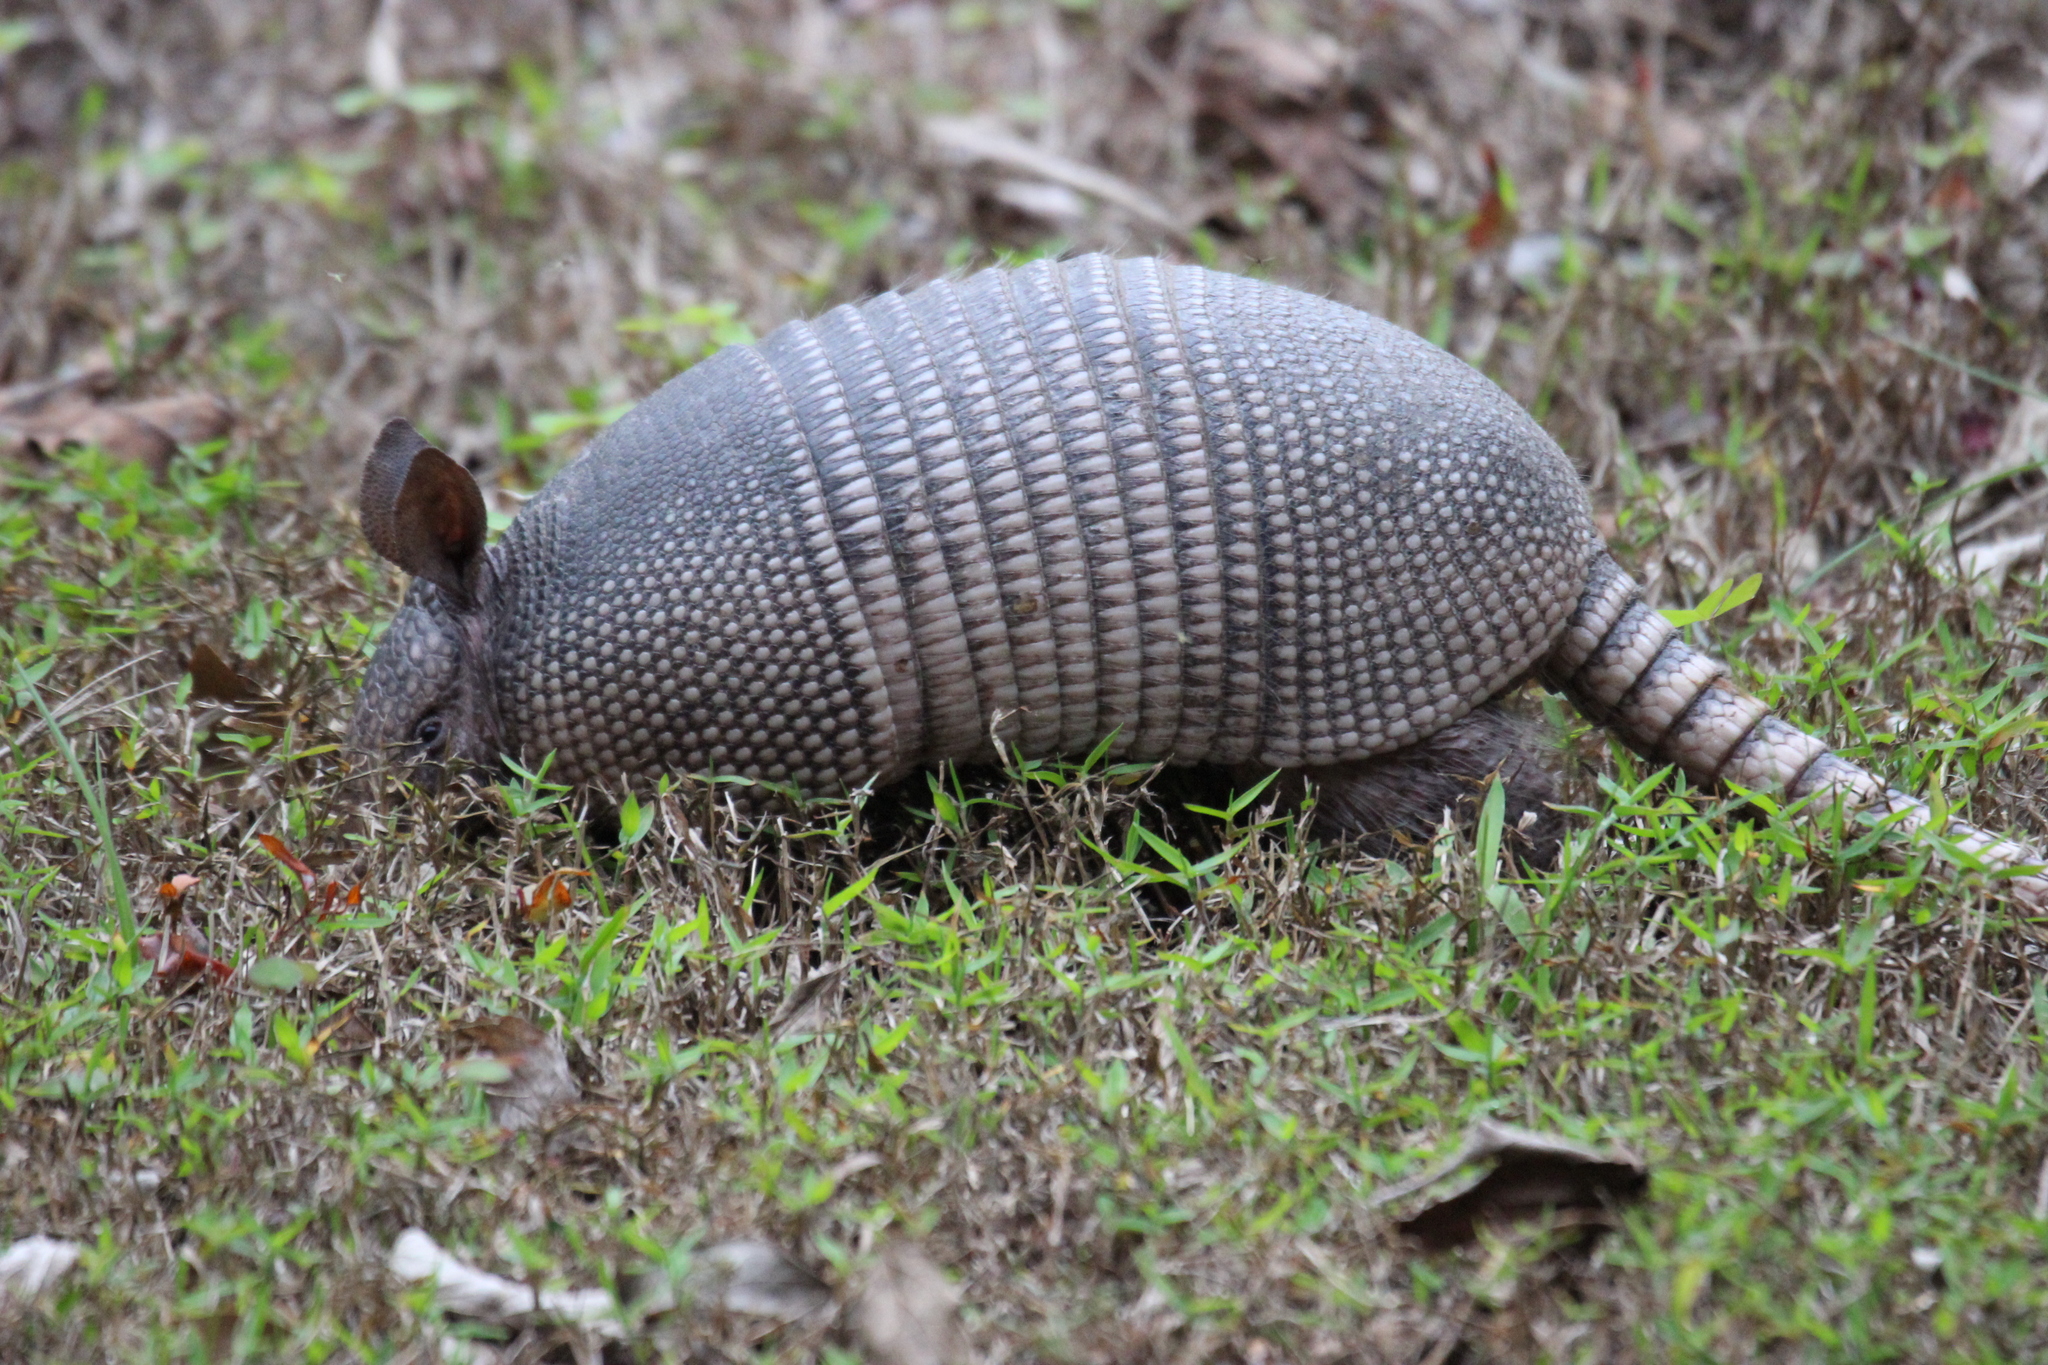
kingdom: Animalia
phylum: Chordata
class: Mammalia
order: Cingulata
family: Dasypodidae
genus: Dasypus
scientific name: Dasypus novemcinctus
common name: Nine-banded armadillo
